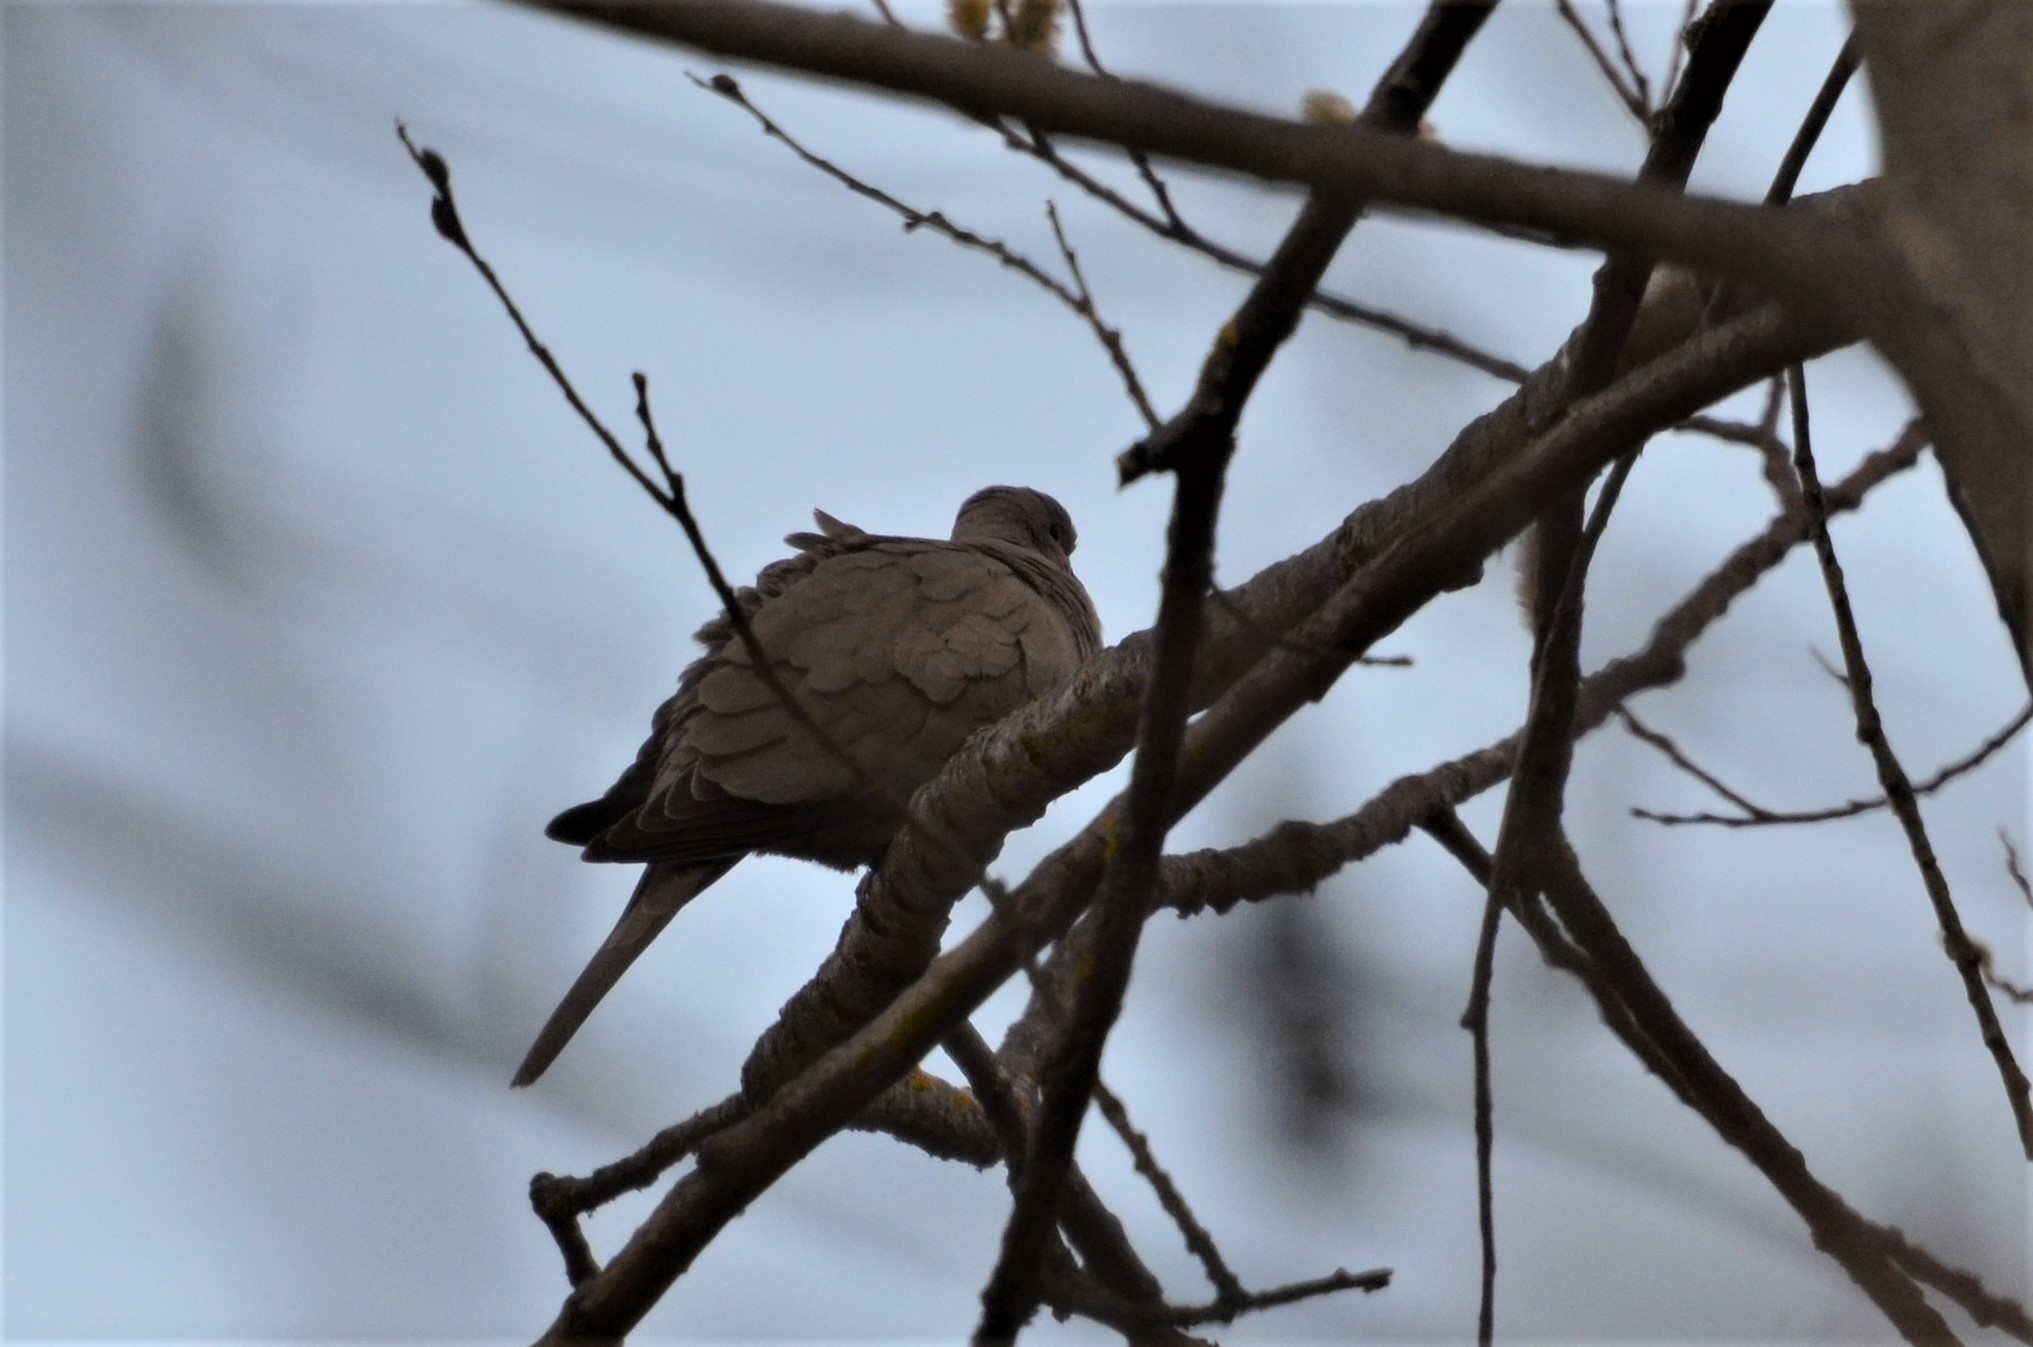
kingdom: Animalia
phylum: Chordata
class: Aves
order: Columbiformes
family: Columbidae
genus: Streptopelia
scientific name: Streptopelia decaocto
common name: Eurasian collared dove
